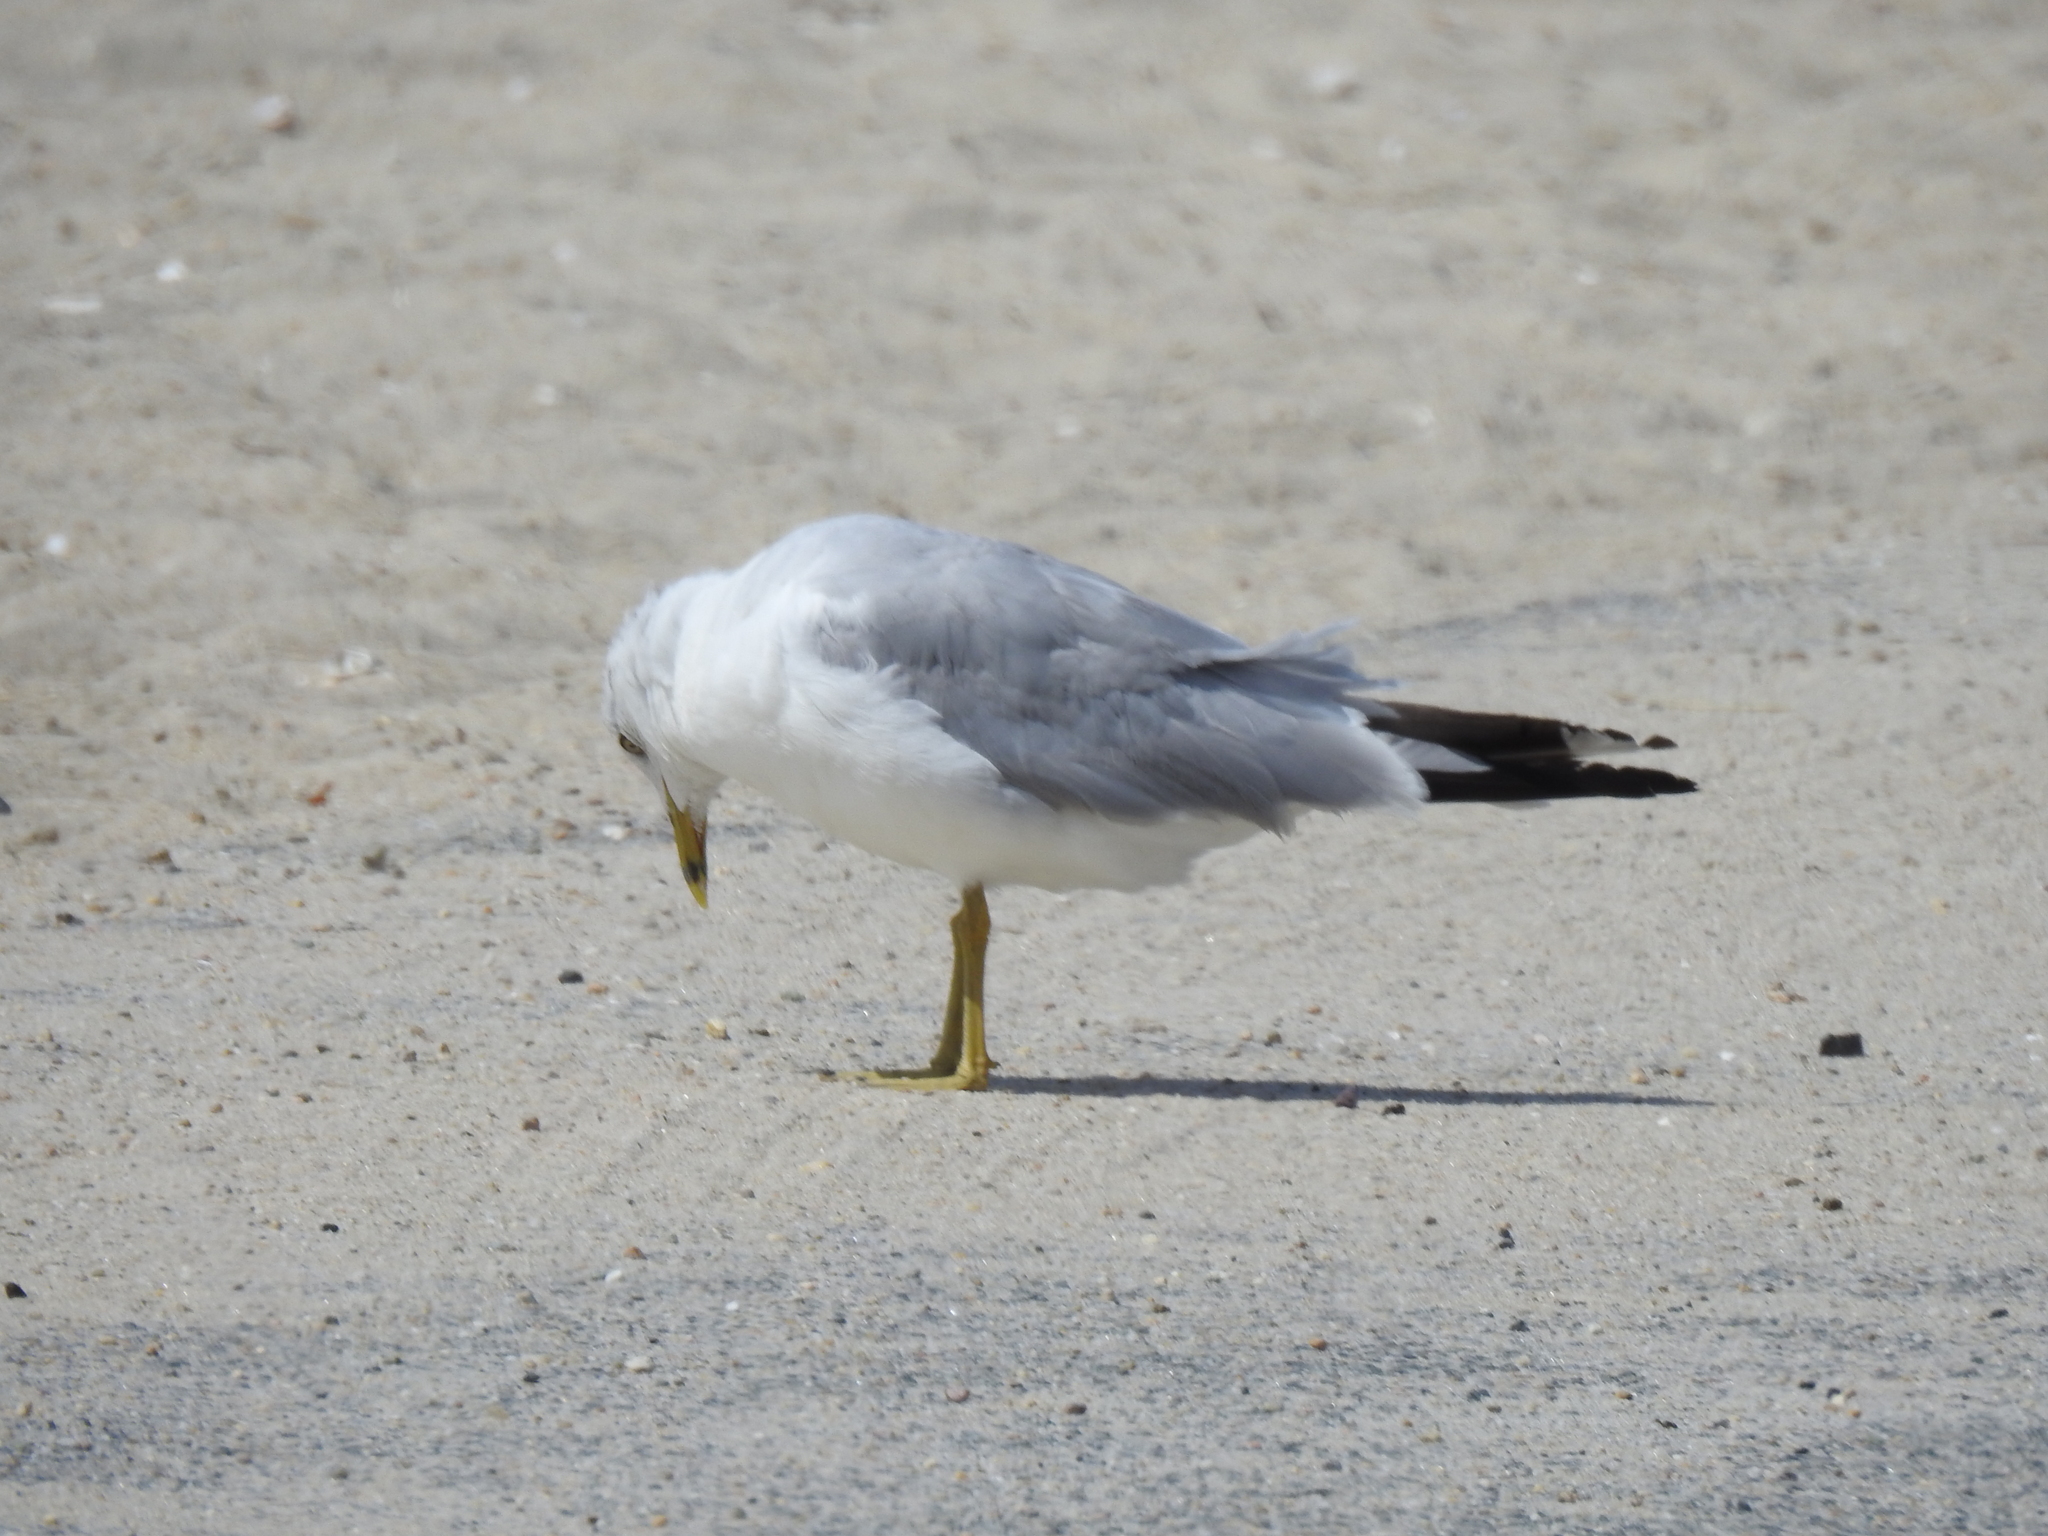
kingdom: Animalia
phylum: Chordata
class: Aves
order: Charadriiformes
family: Laridae
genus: Larus
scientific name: Larus delawarensis
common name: Ring-billed gull
